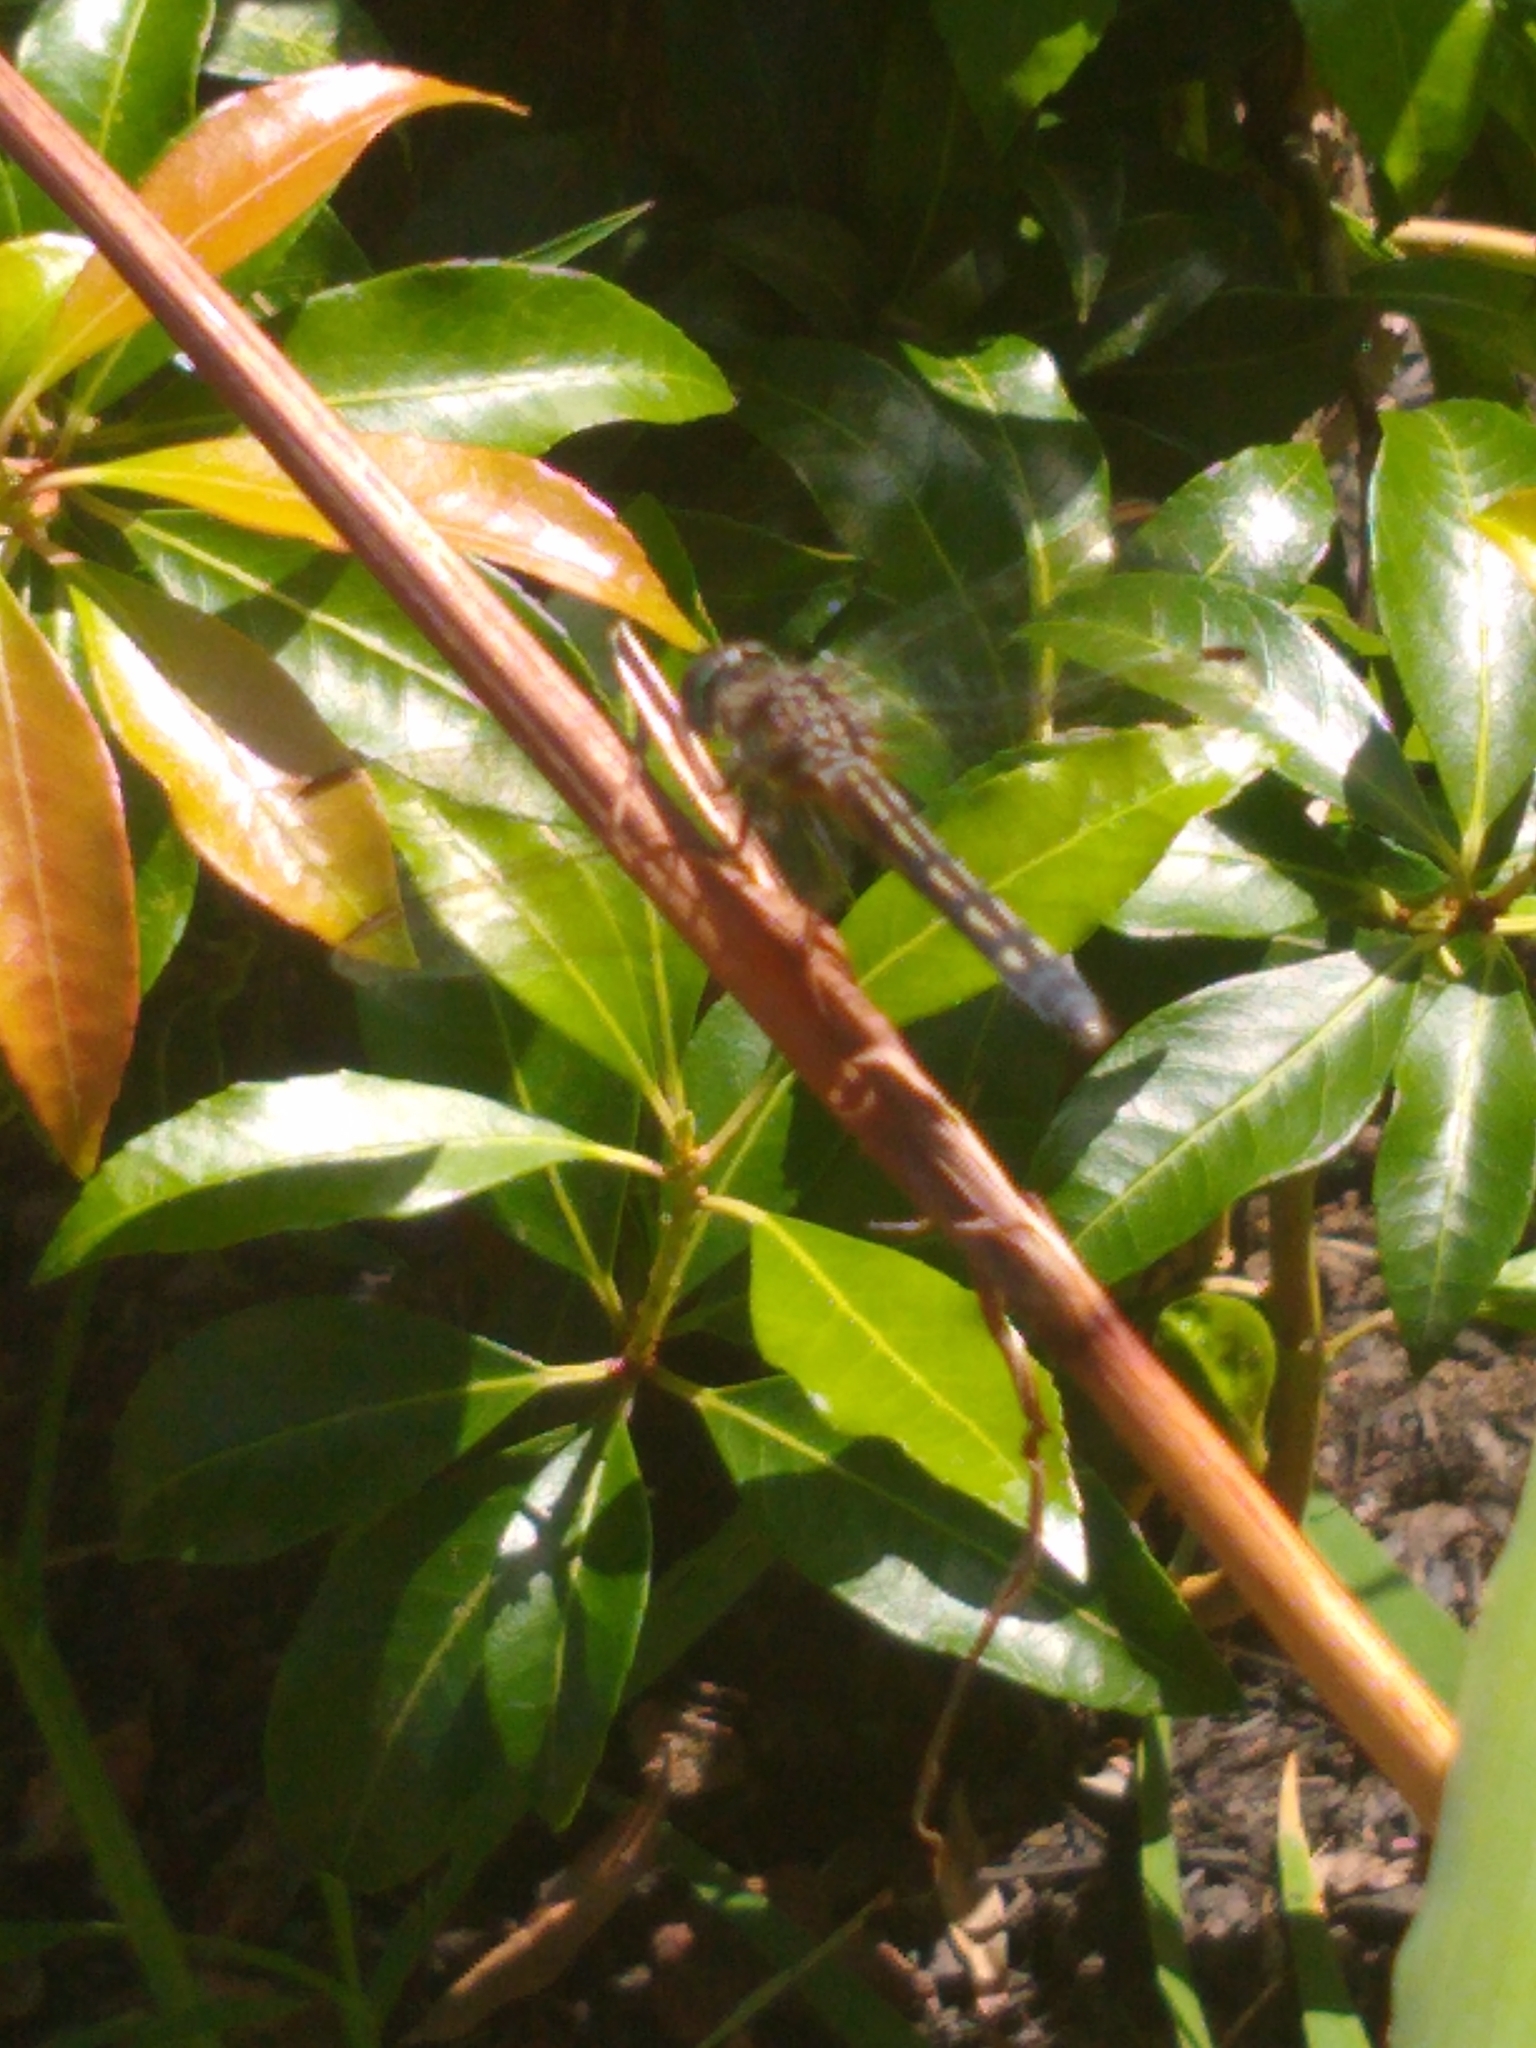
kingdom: Animalia
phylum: Arthropoda
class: Insecta
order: Odonata
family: Libellulidae
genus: Pachydiplax
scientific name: Pachydiplax longipennis
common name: Blue dasher
